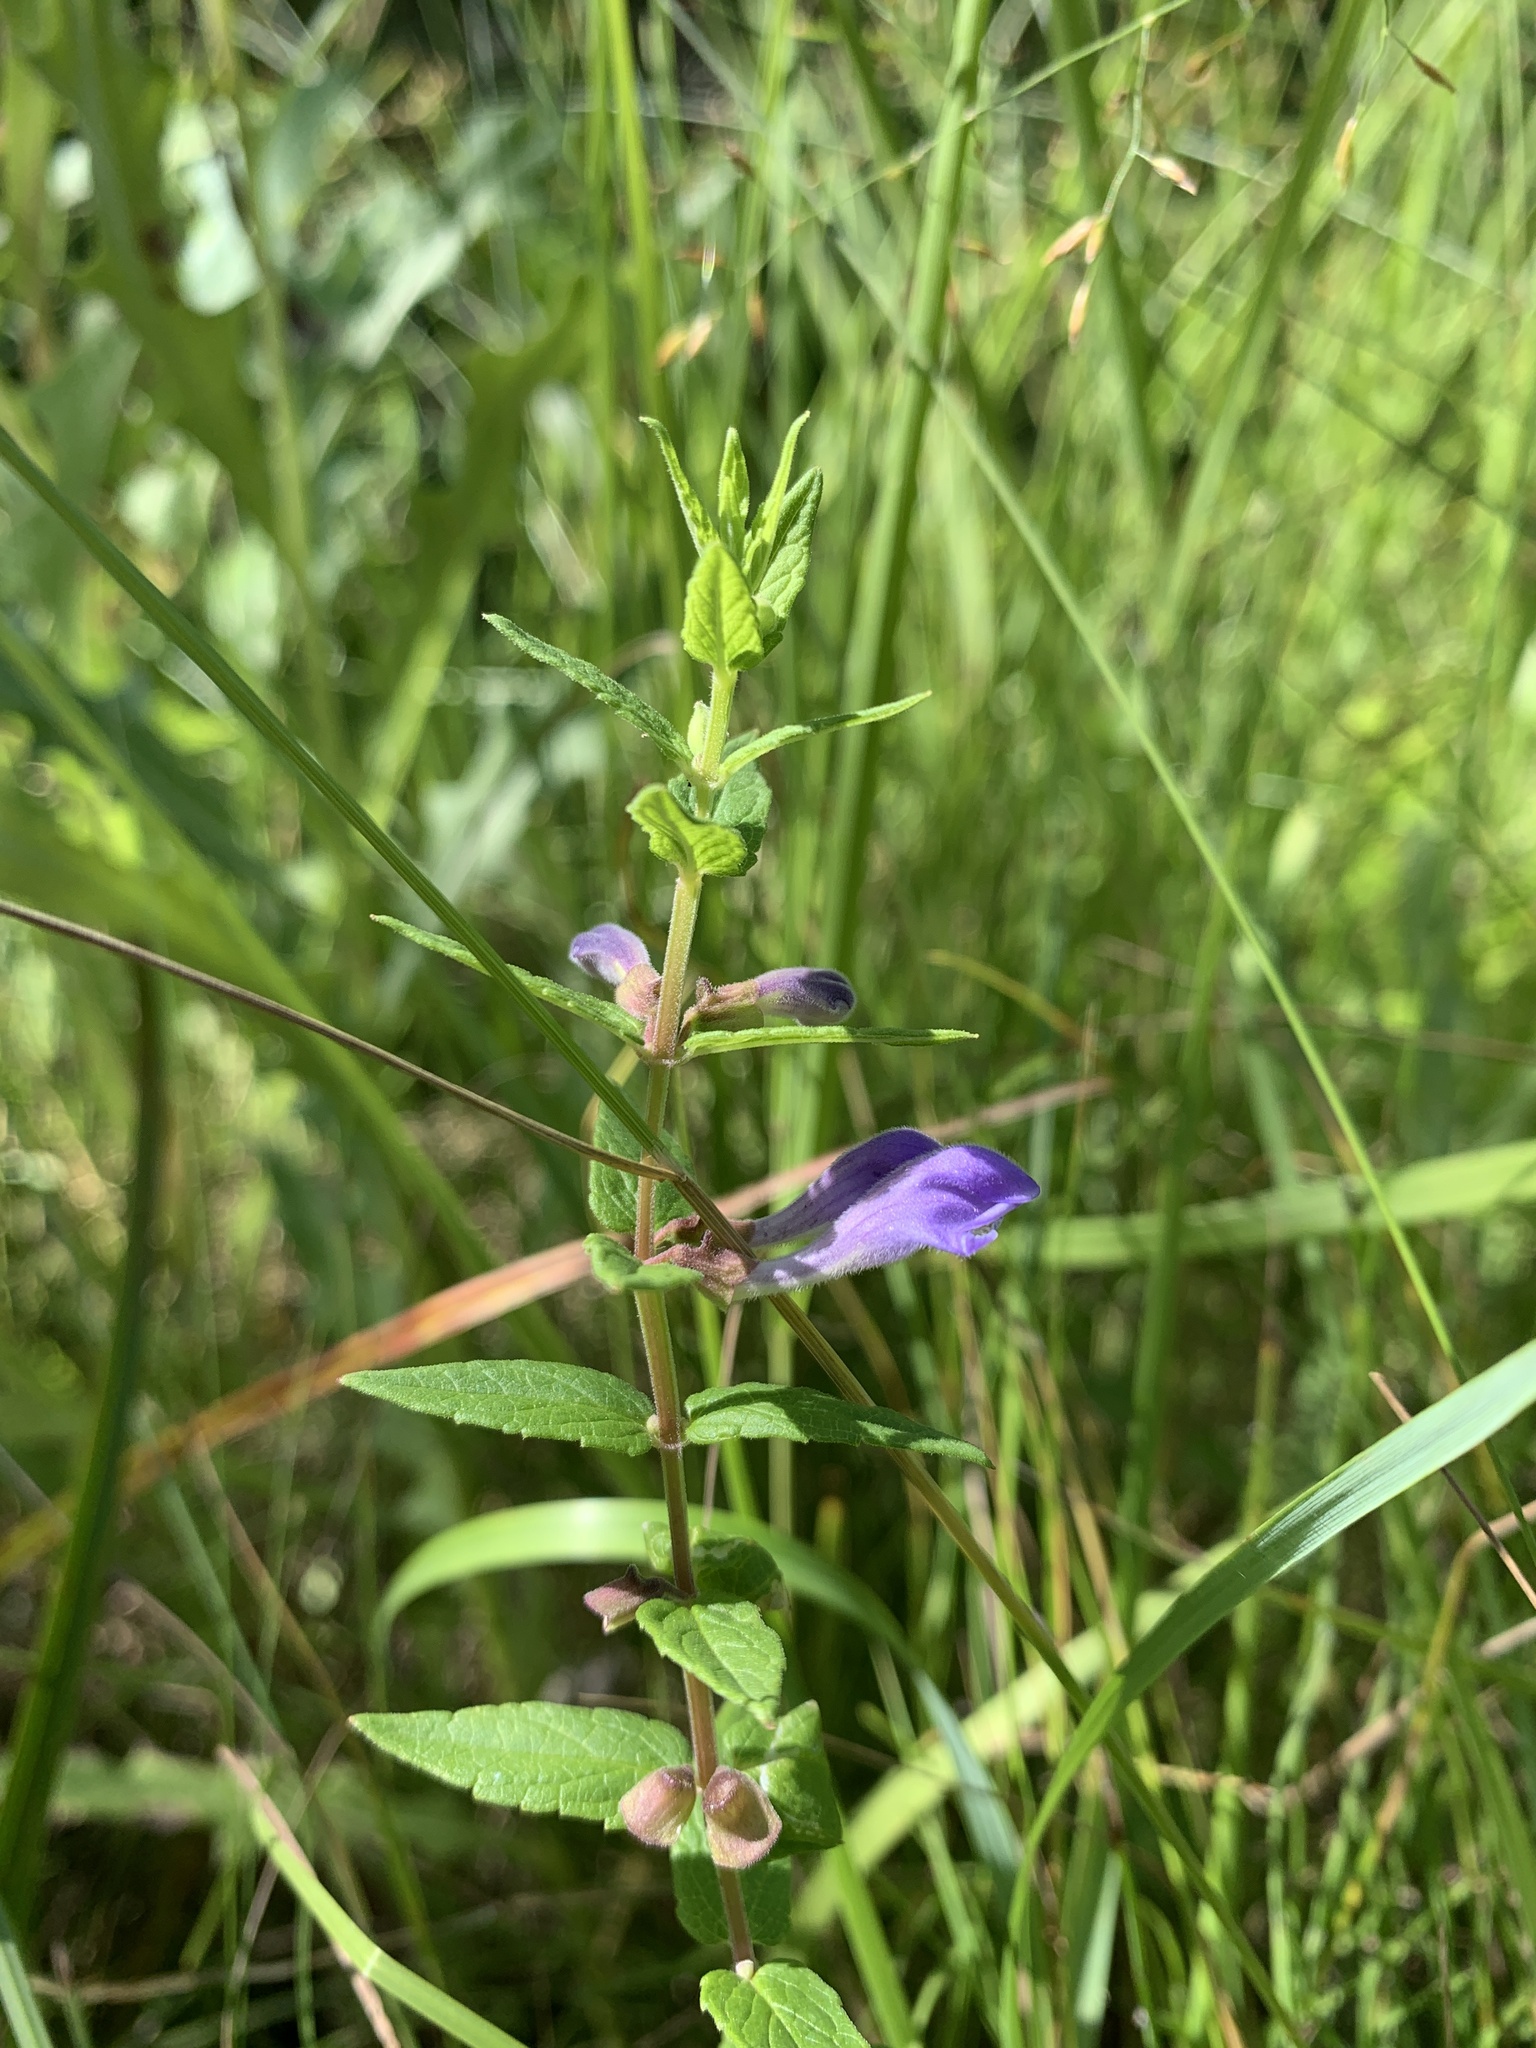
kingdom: Plantae
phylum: Tracheophyta
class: Magnoliopsida
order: Lamiales
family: Lamiaceae
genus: Scutellaria
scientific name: Scutellaria galericulata
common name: Skullcap
